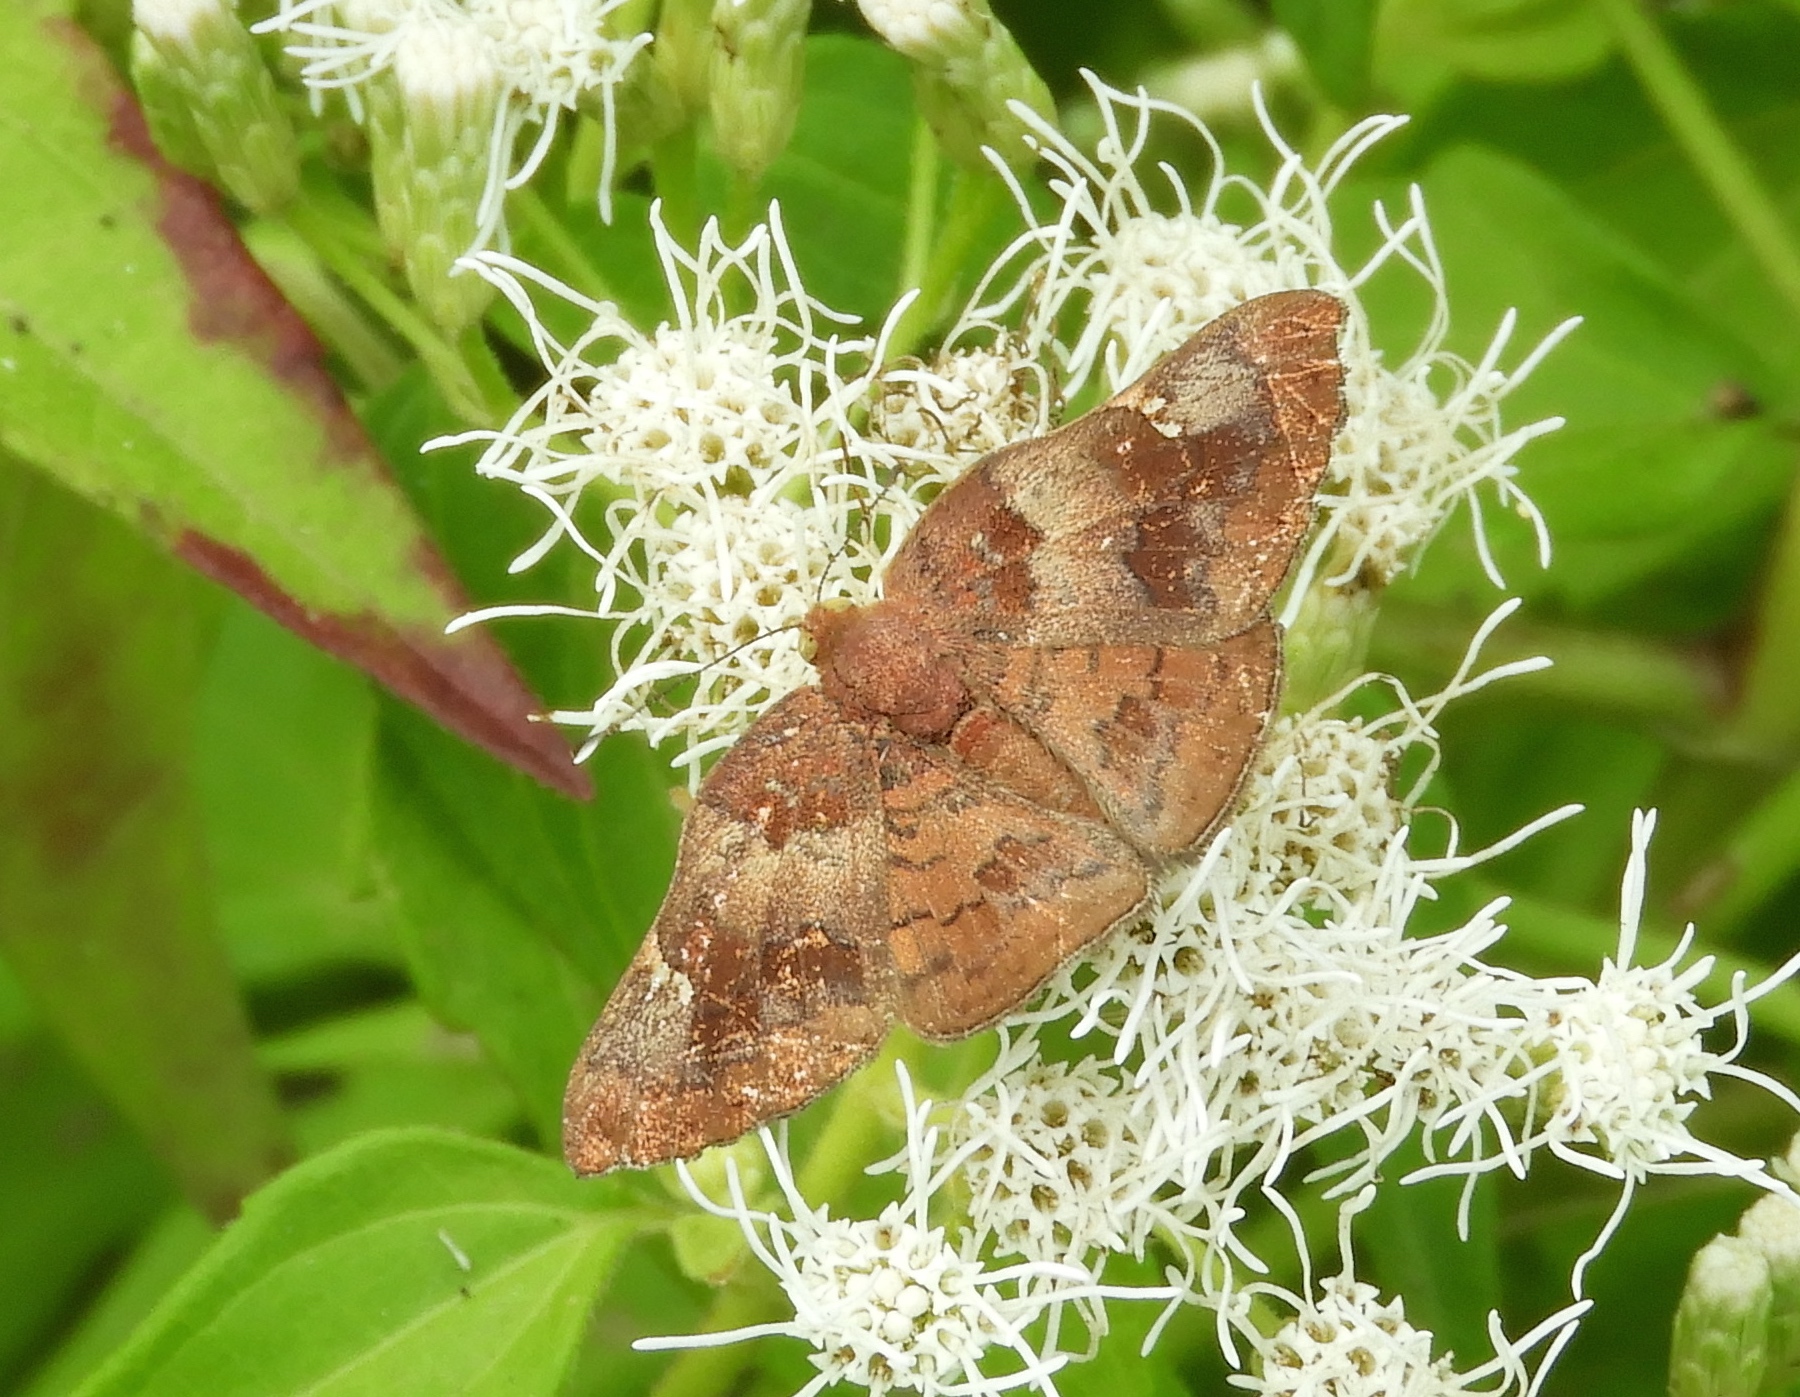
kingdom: Animalia
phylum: Arthropoda
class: Insecta
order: Lepidoptera
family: Riodinidae
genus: Curvie
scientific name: Curvie emesia
